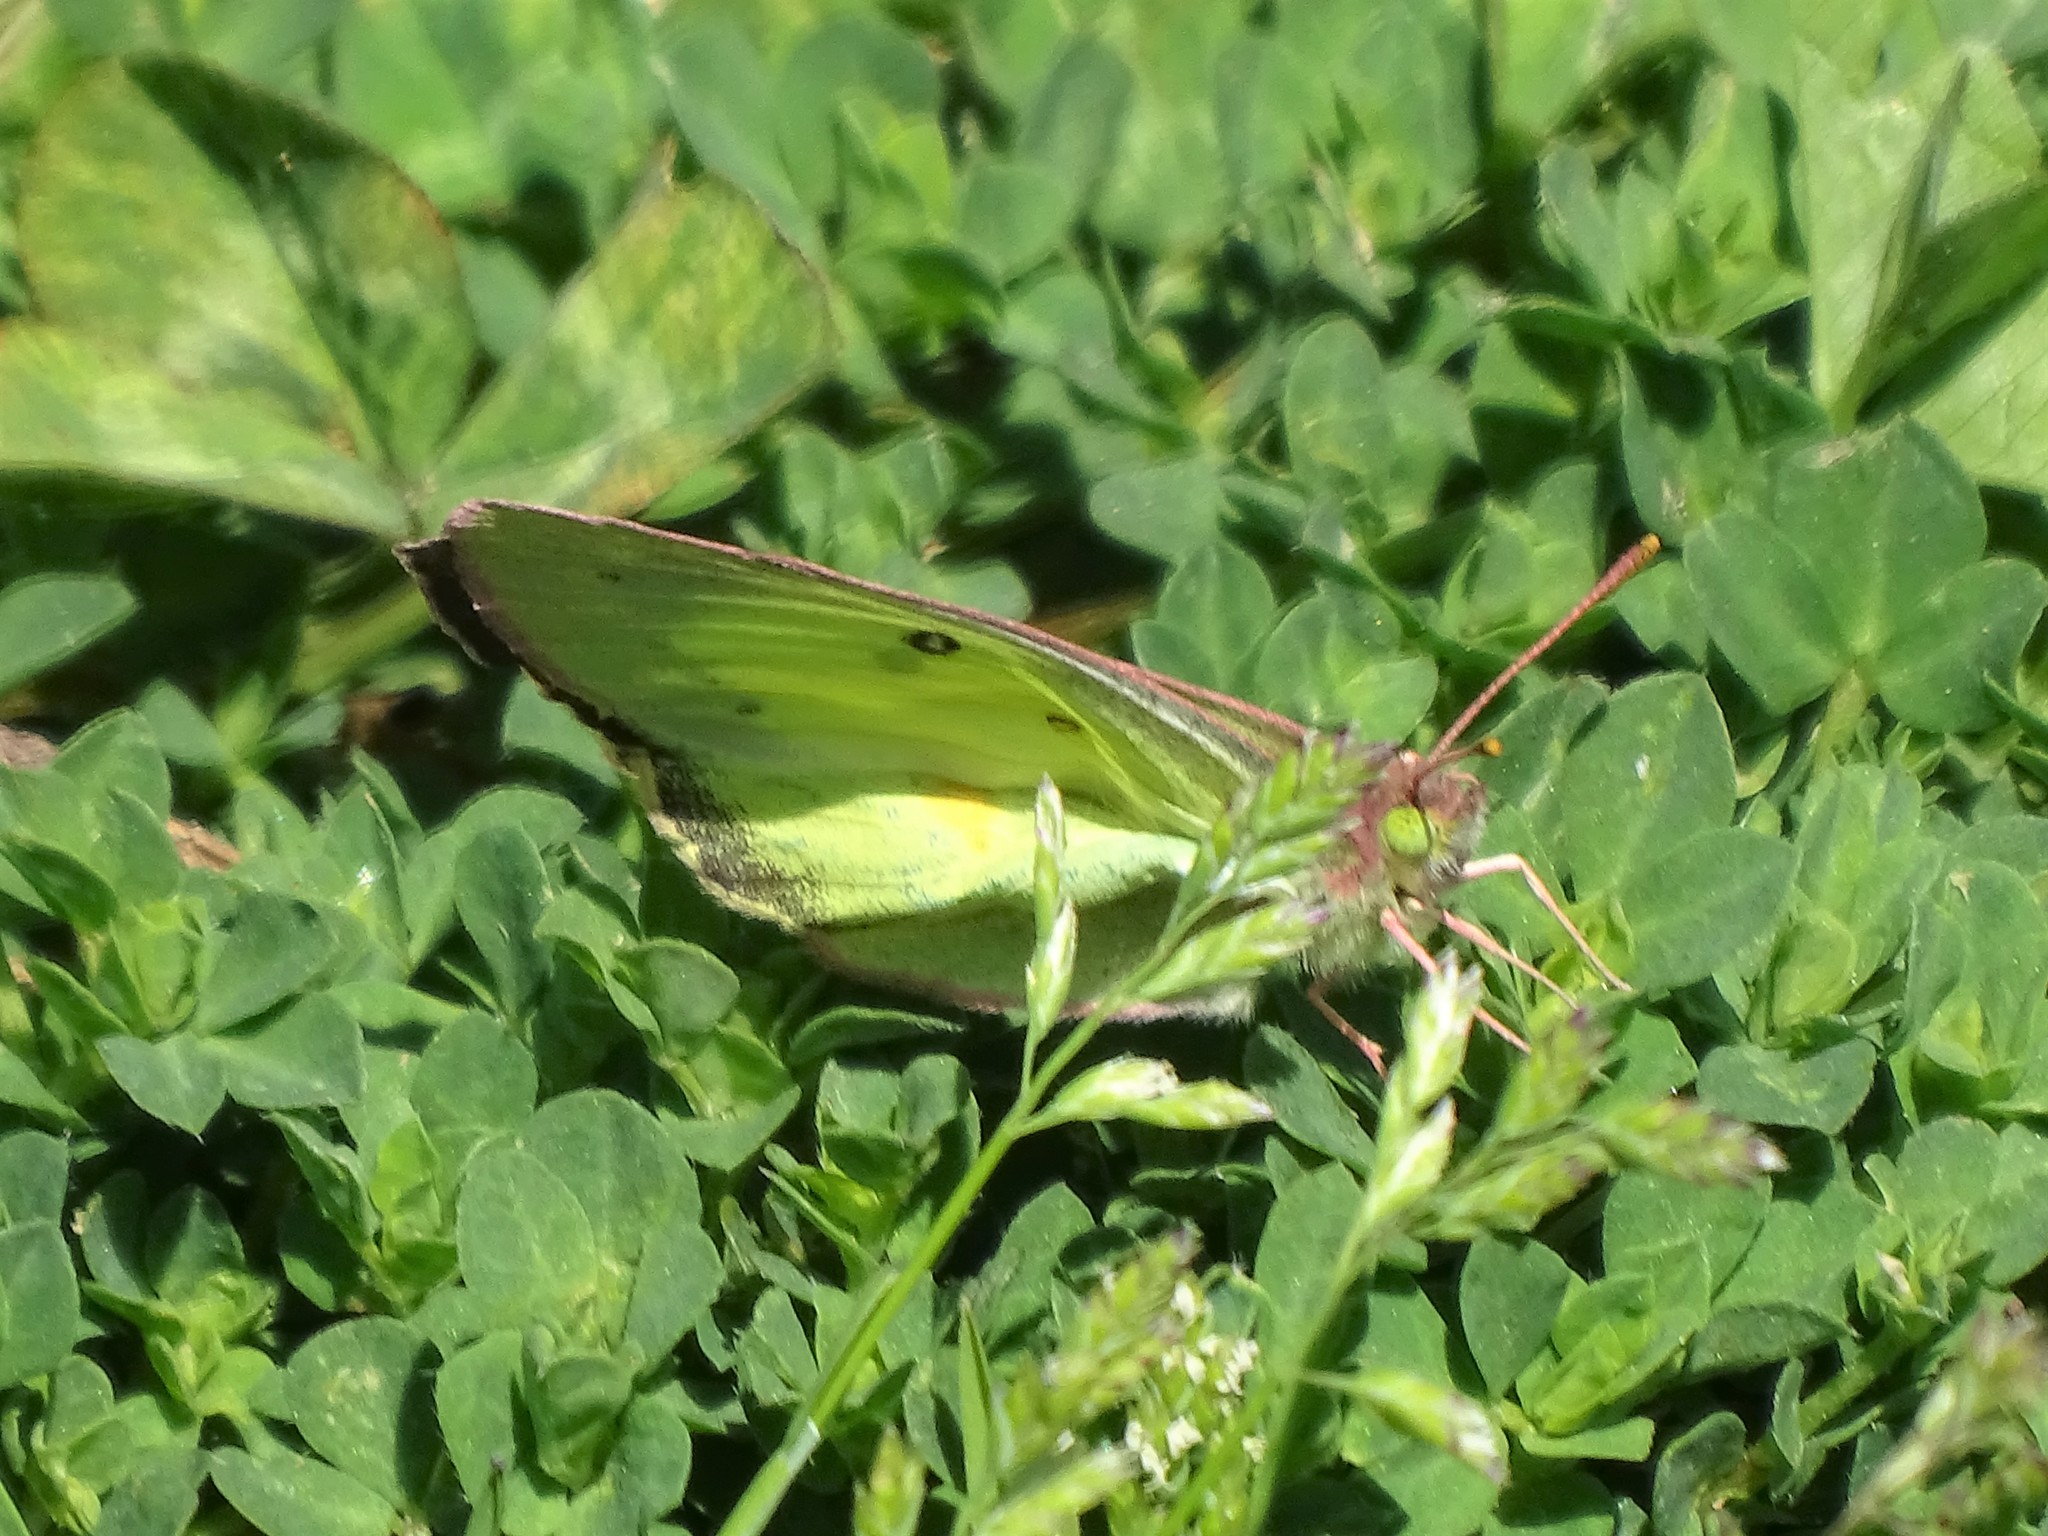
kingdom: Animalia
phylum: Arthropoda
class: Insecta
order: Lepidoptera
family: Pieridae
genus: Colias
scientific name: Colias philodice
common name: Clouded sulphur
